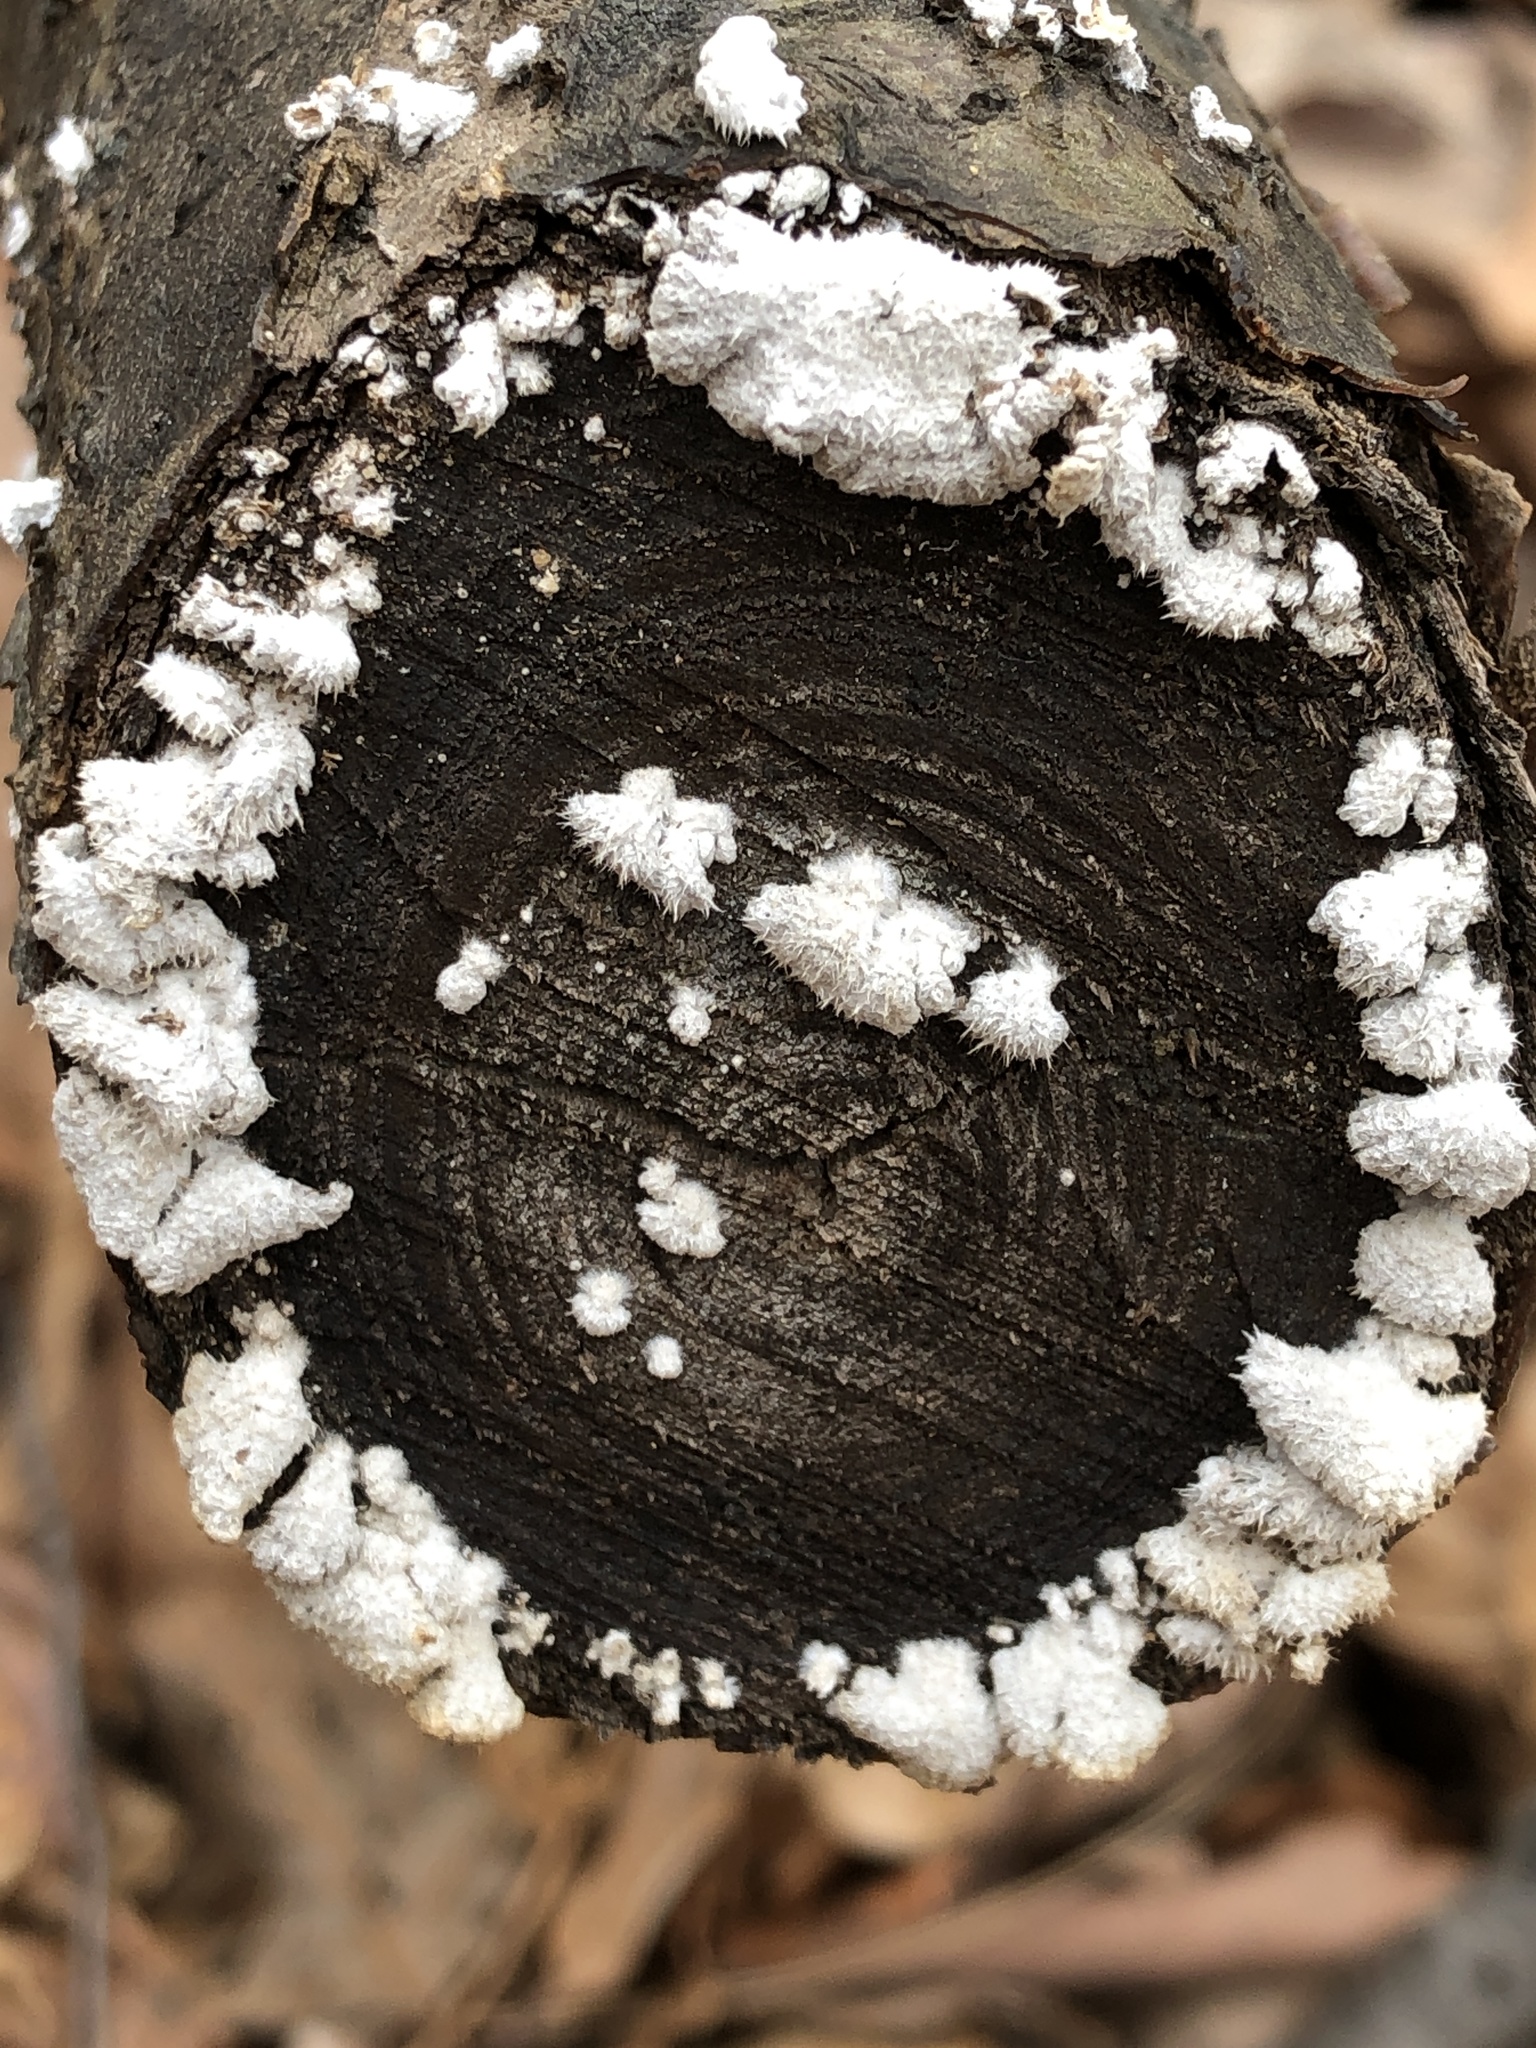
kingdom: Fungi
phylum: Basidiomycota
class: Agaricomycetes
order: Agaricales
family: Schizophyllaceae
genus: Schizophyllum
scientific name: Schizophyllum commune
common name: Common porecrust
